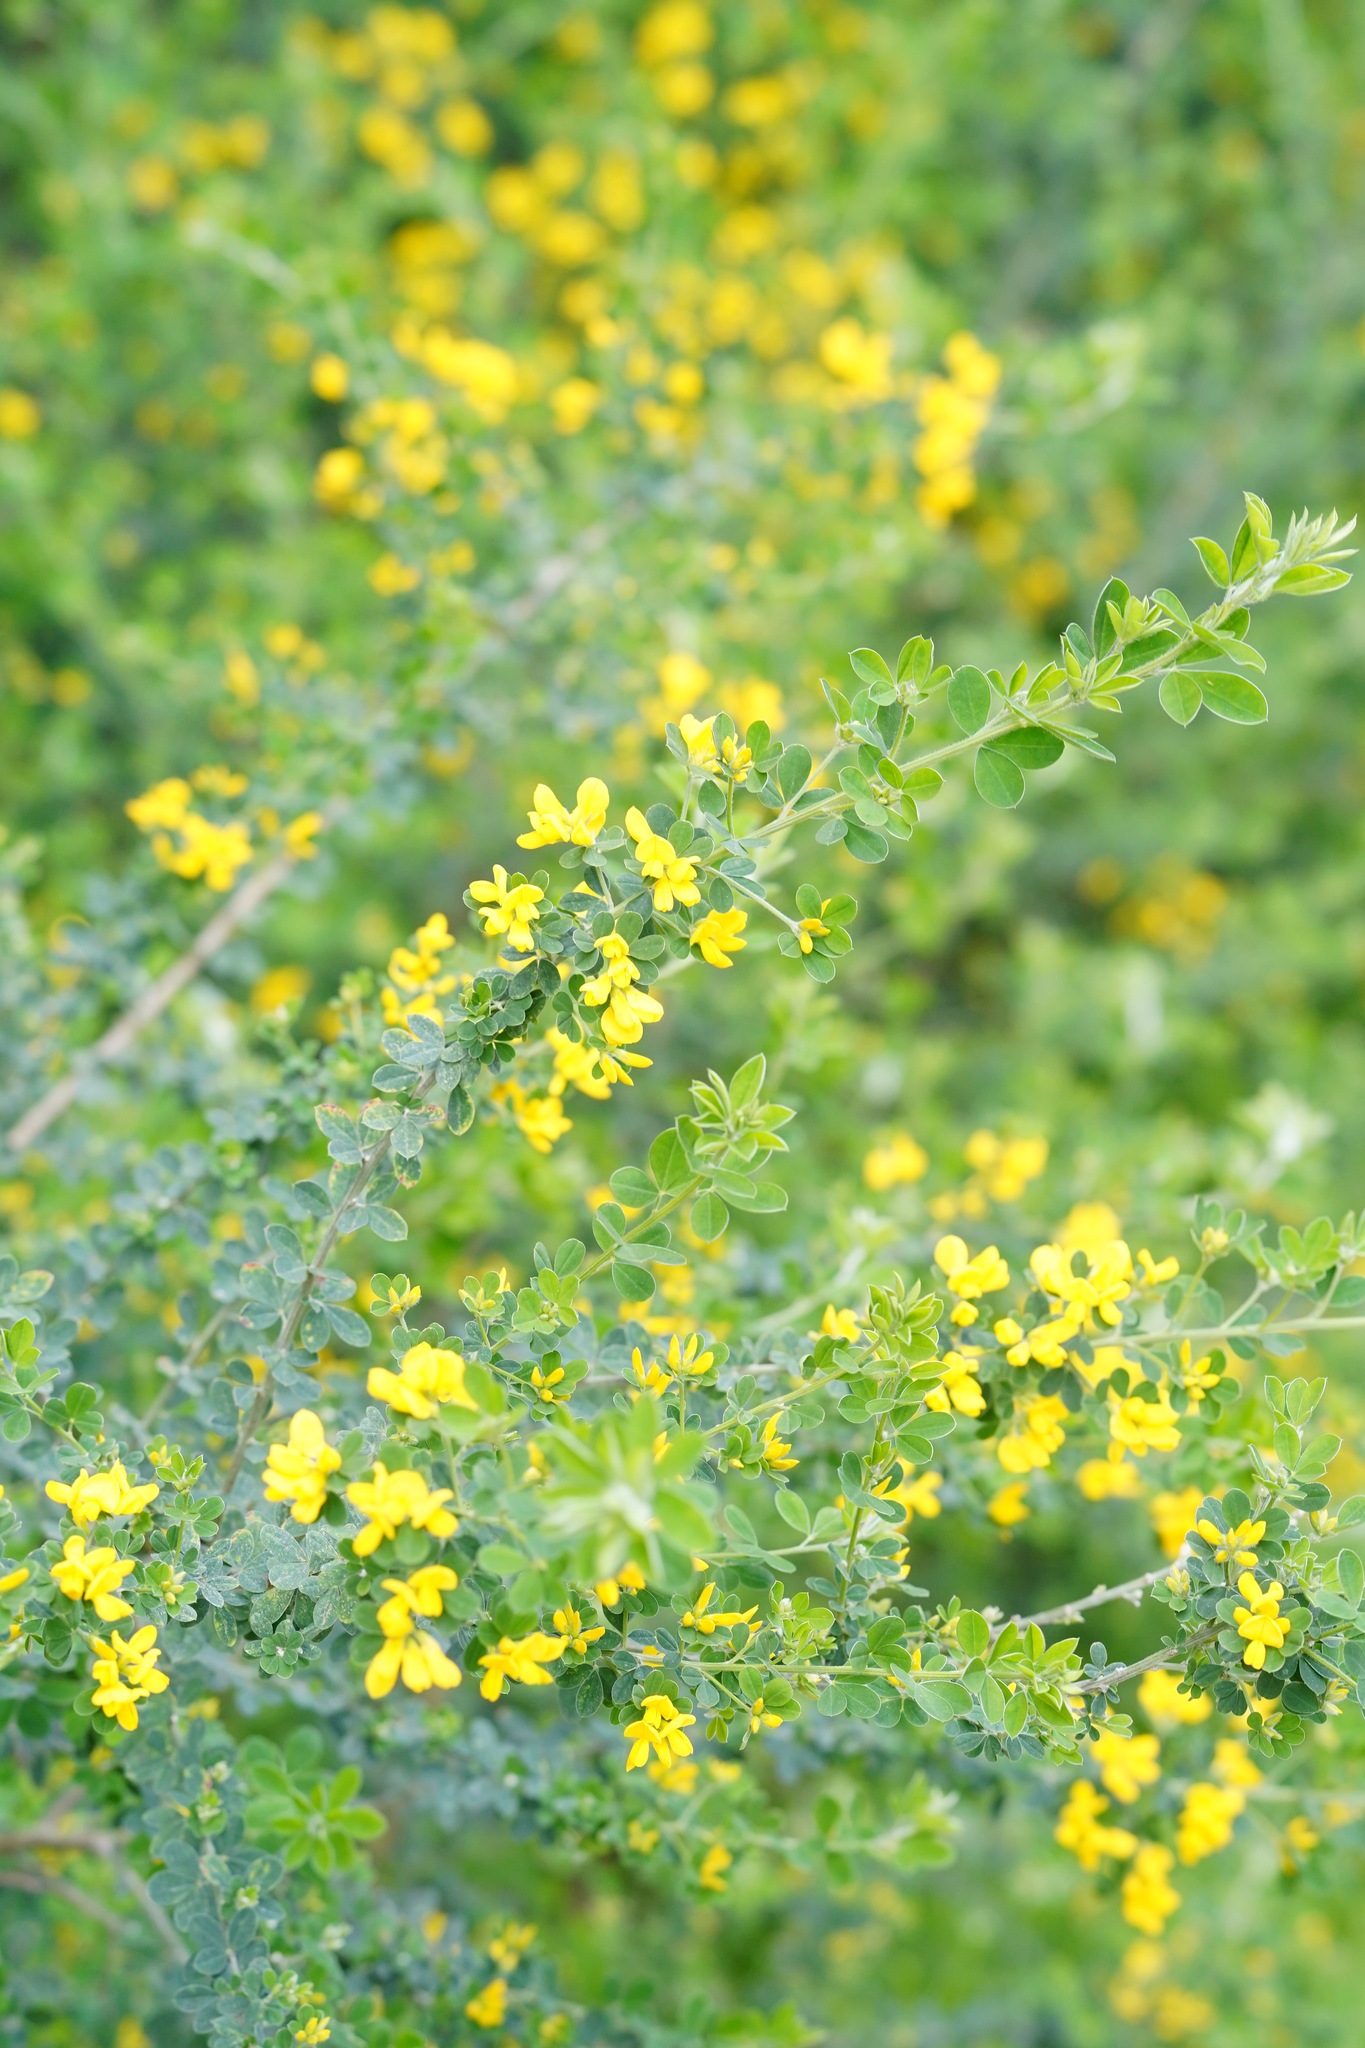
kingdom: Plantae
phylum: Tracheophyta
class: Magnoliopsida
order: Fabales
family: Fabaceae
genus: Genista
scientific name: Genista monspessulana
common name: Montpellier broom
